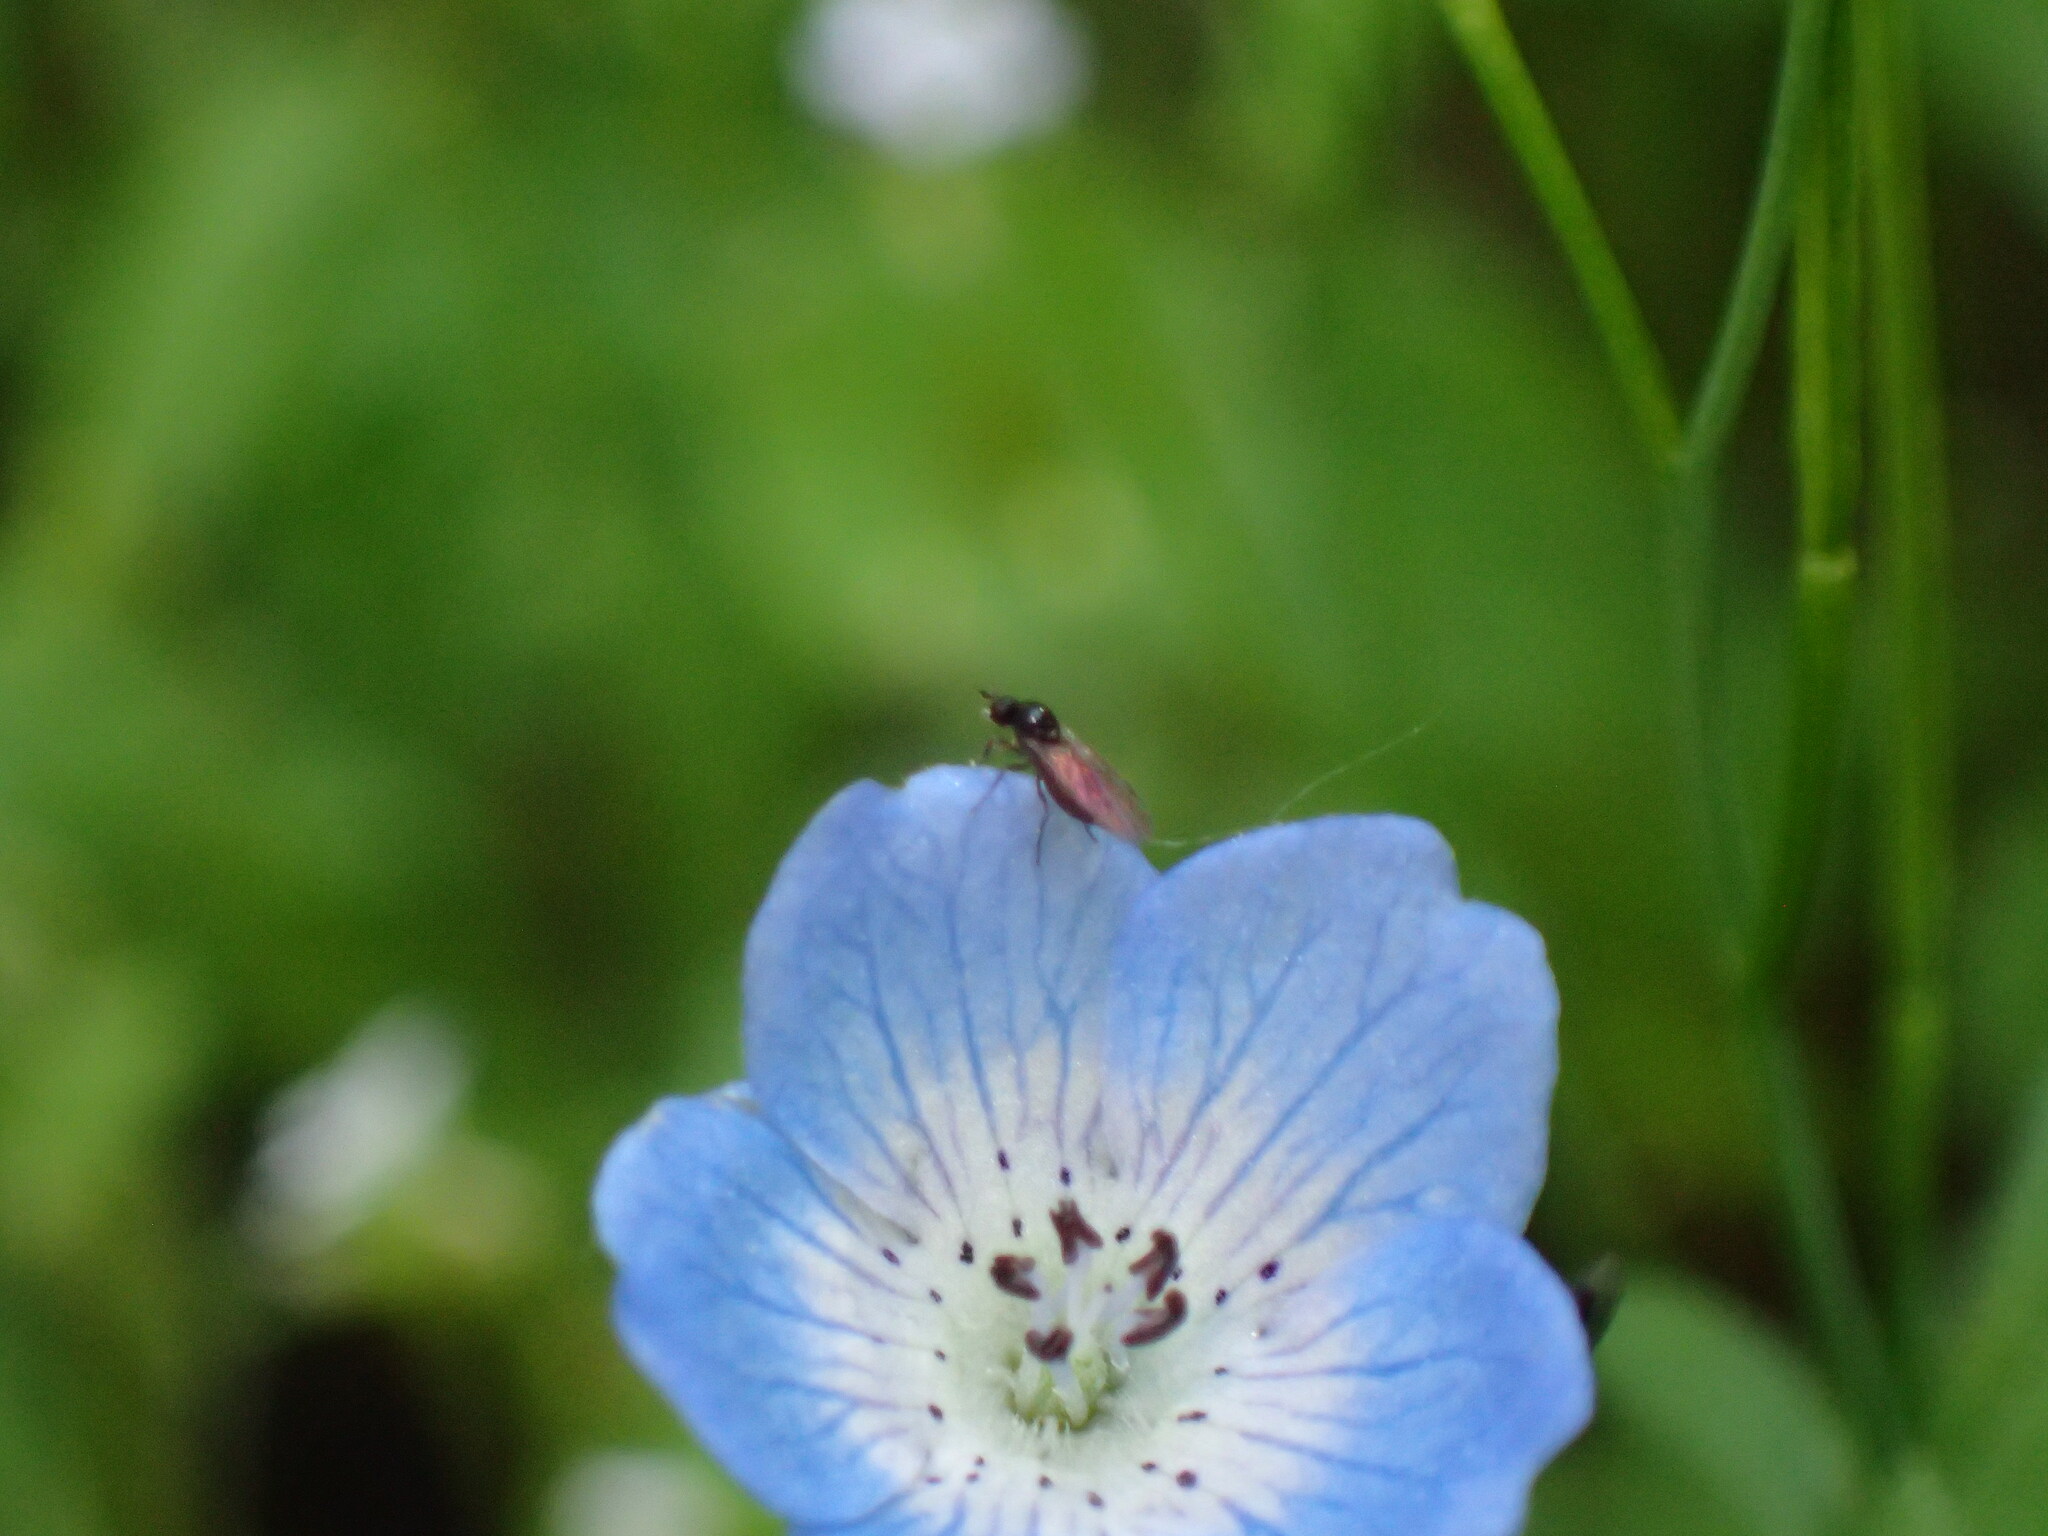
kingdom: Plantae
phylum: Tracheophyta
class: Magnoliopsida
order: Boraginales
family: Hydrophyllaceae
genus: Nemophila
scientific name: Nemophila menziesii
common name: Baby's-blue-eyes
